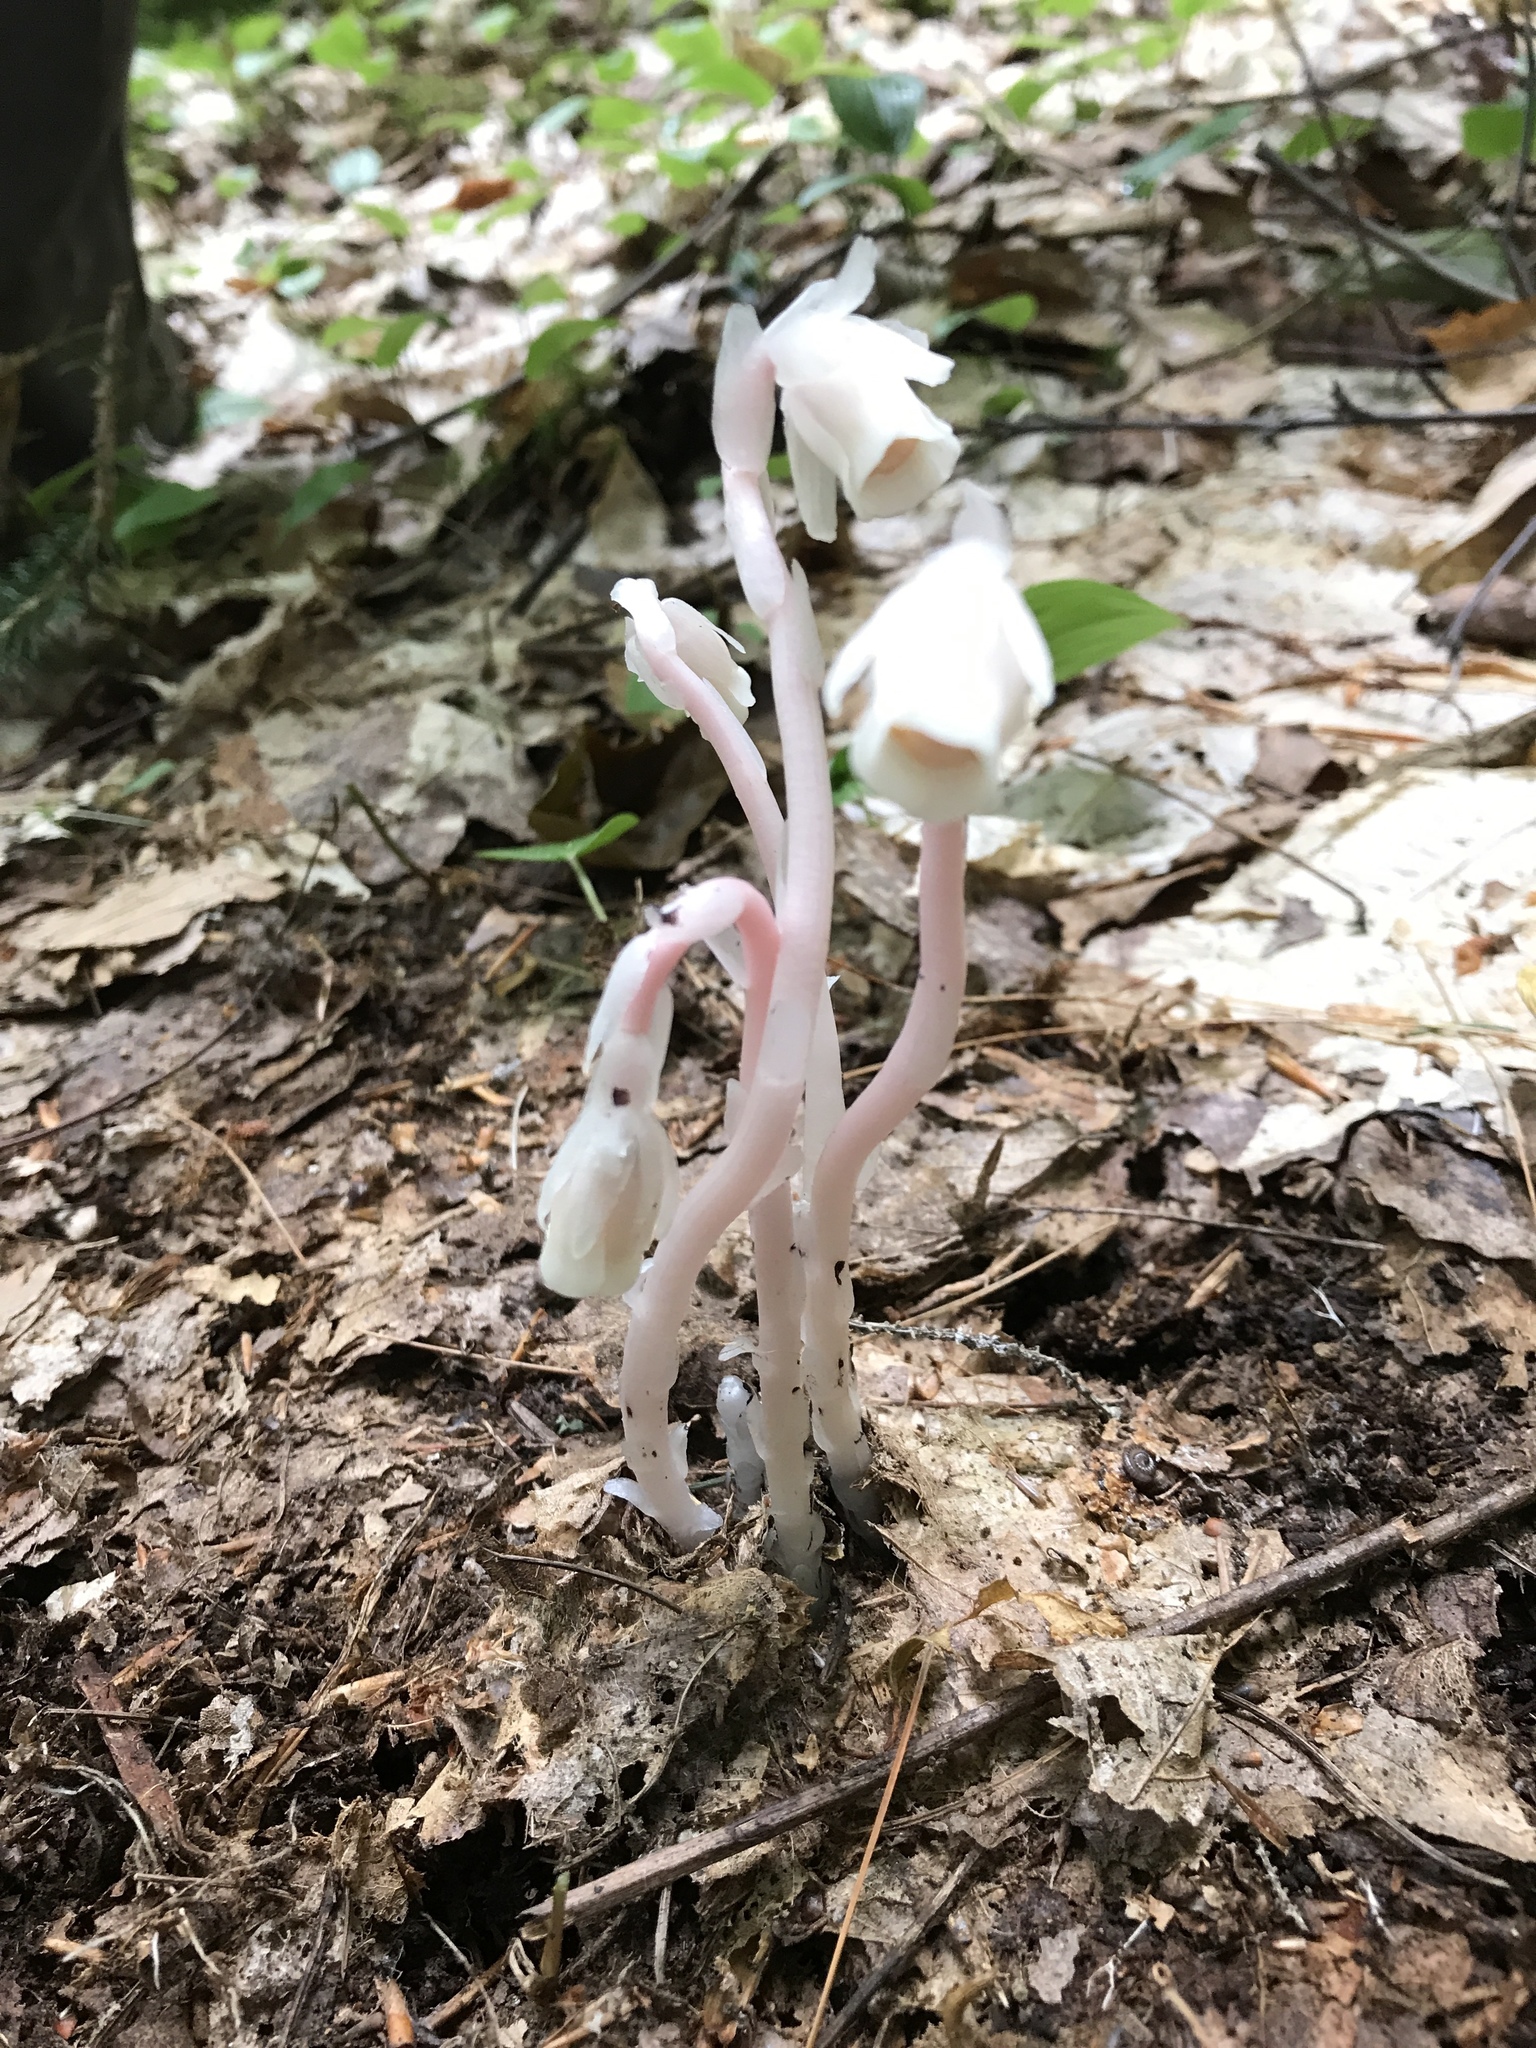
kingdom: Plantae
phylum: Tracheophyta
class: Magnoliopsida
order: Ericales
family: Ericaceae
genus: Monotropa
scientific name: Monotropa uniflora
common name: Convulsion root
